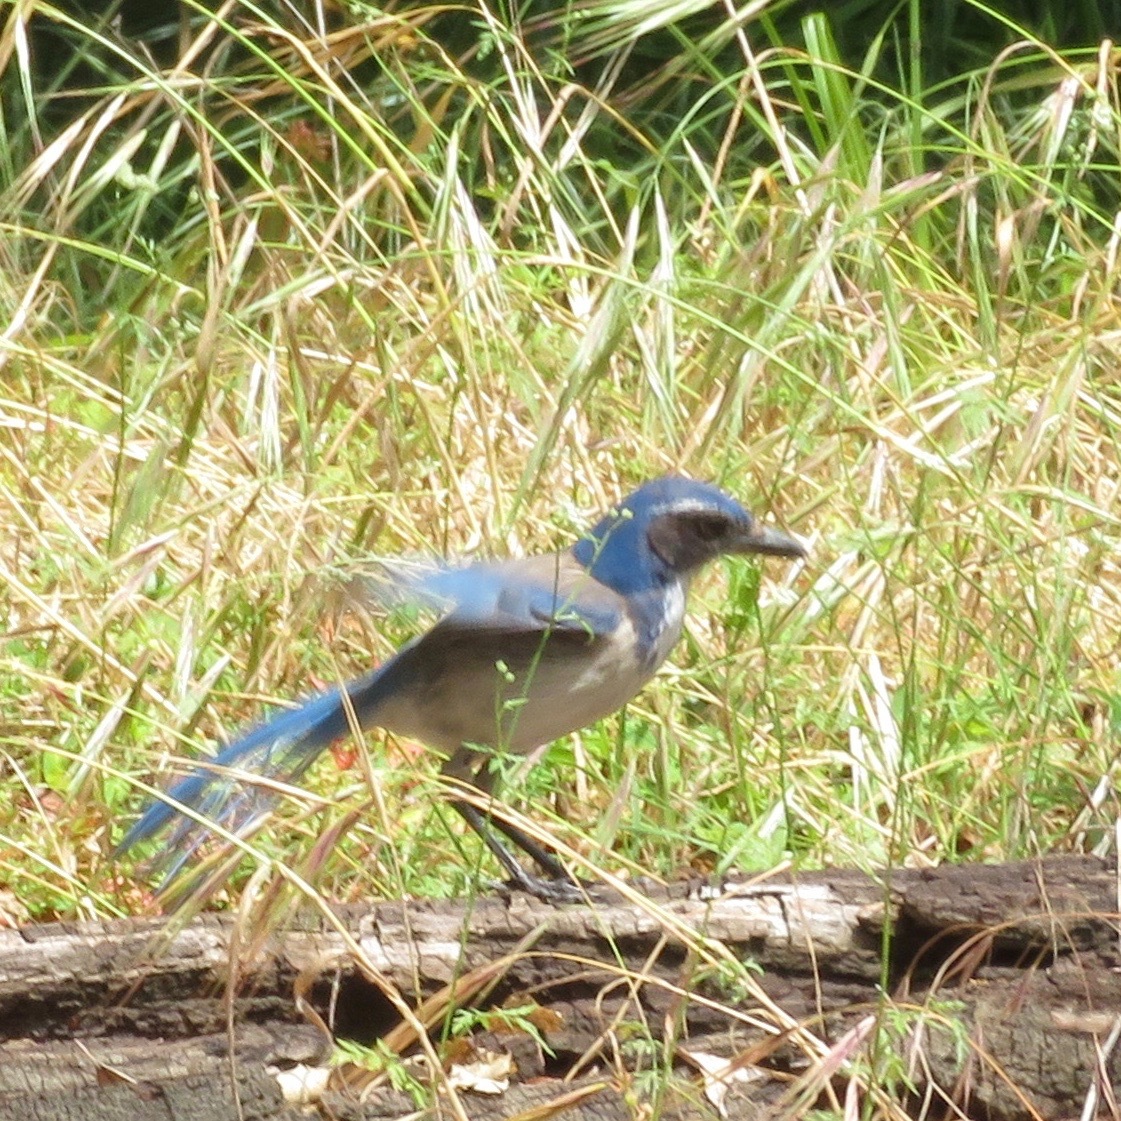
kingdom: Animalia
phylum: Chordata
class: Aves
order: Passeriformes
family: Corvidae
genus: Aphelocoma
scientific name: Aphelocoma californica
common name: California scrub-jay
